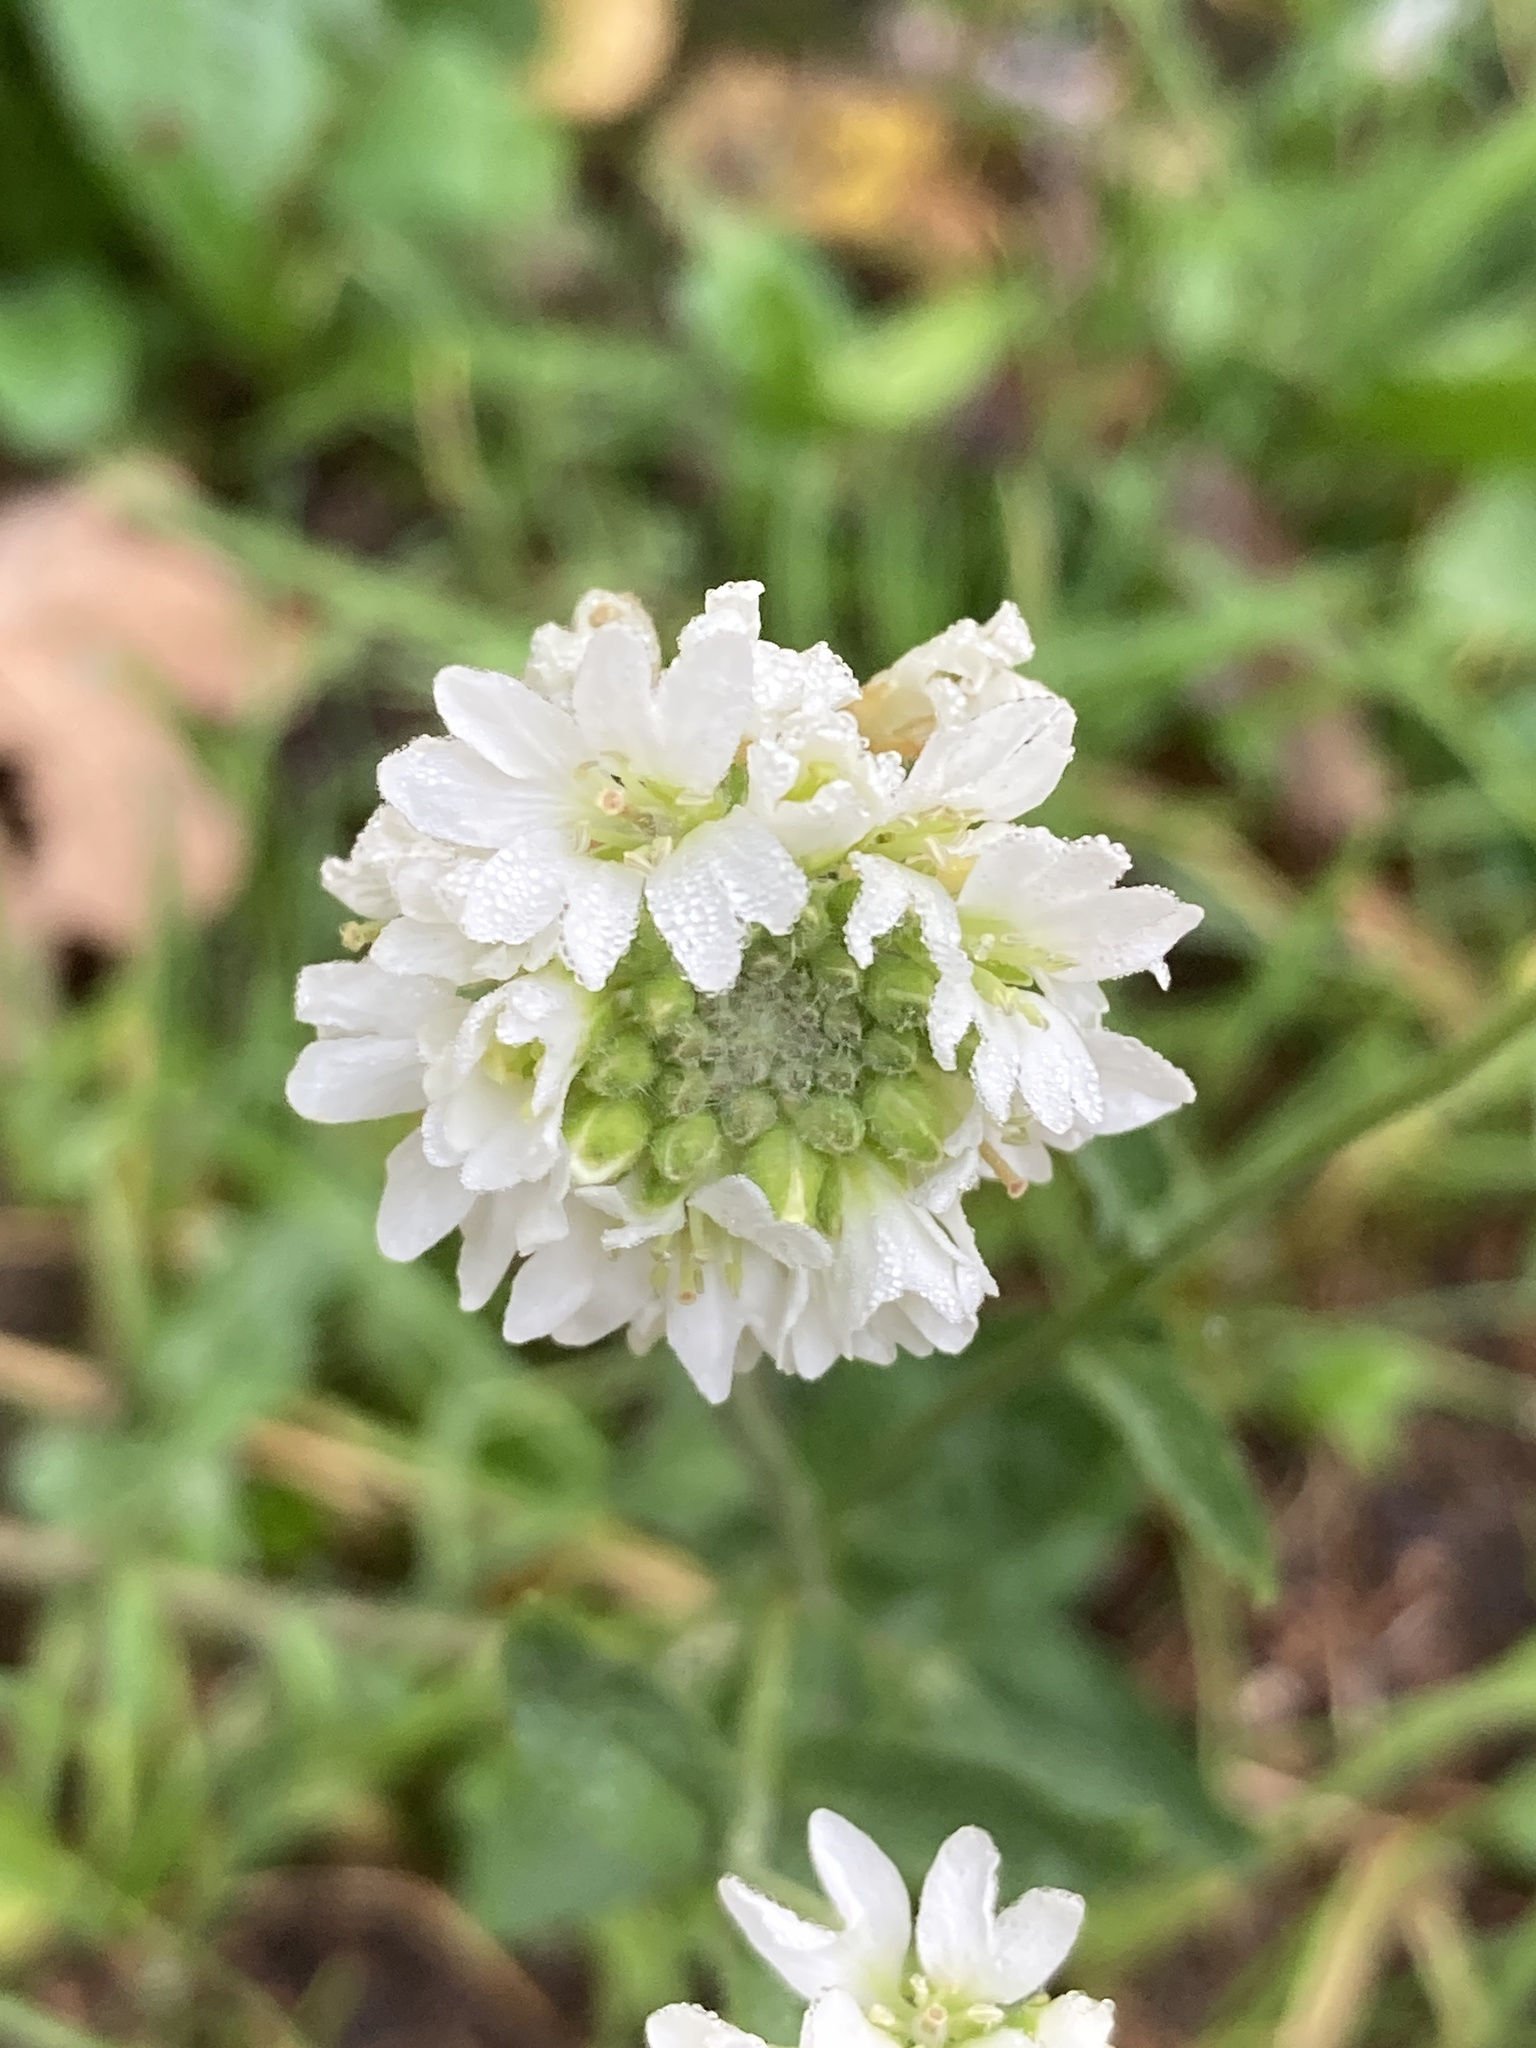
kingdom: Plantae
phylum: Tracheophyta
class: Magnoliopsida
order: Brassicales
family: Brassicaceae
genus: Berteroa
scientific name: Berteroa incana
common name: Hoary alison
